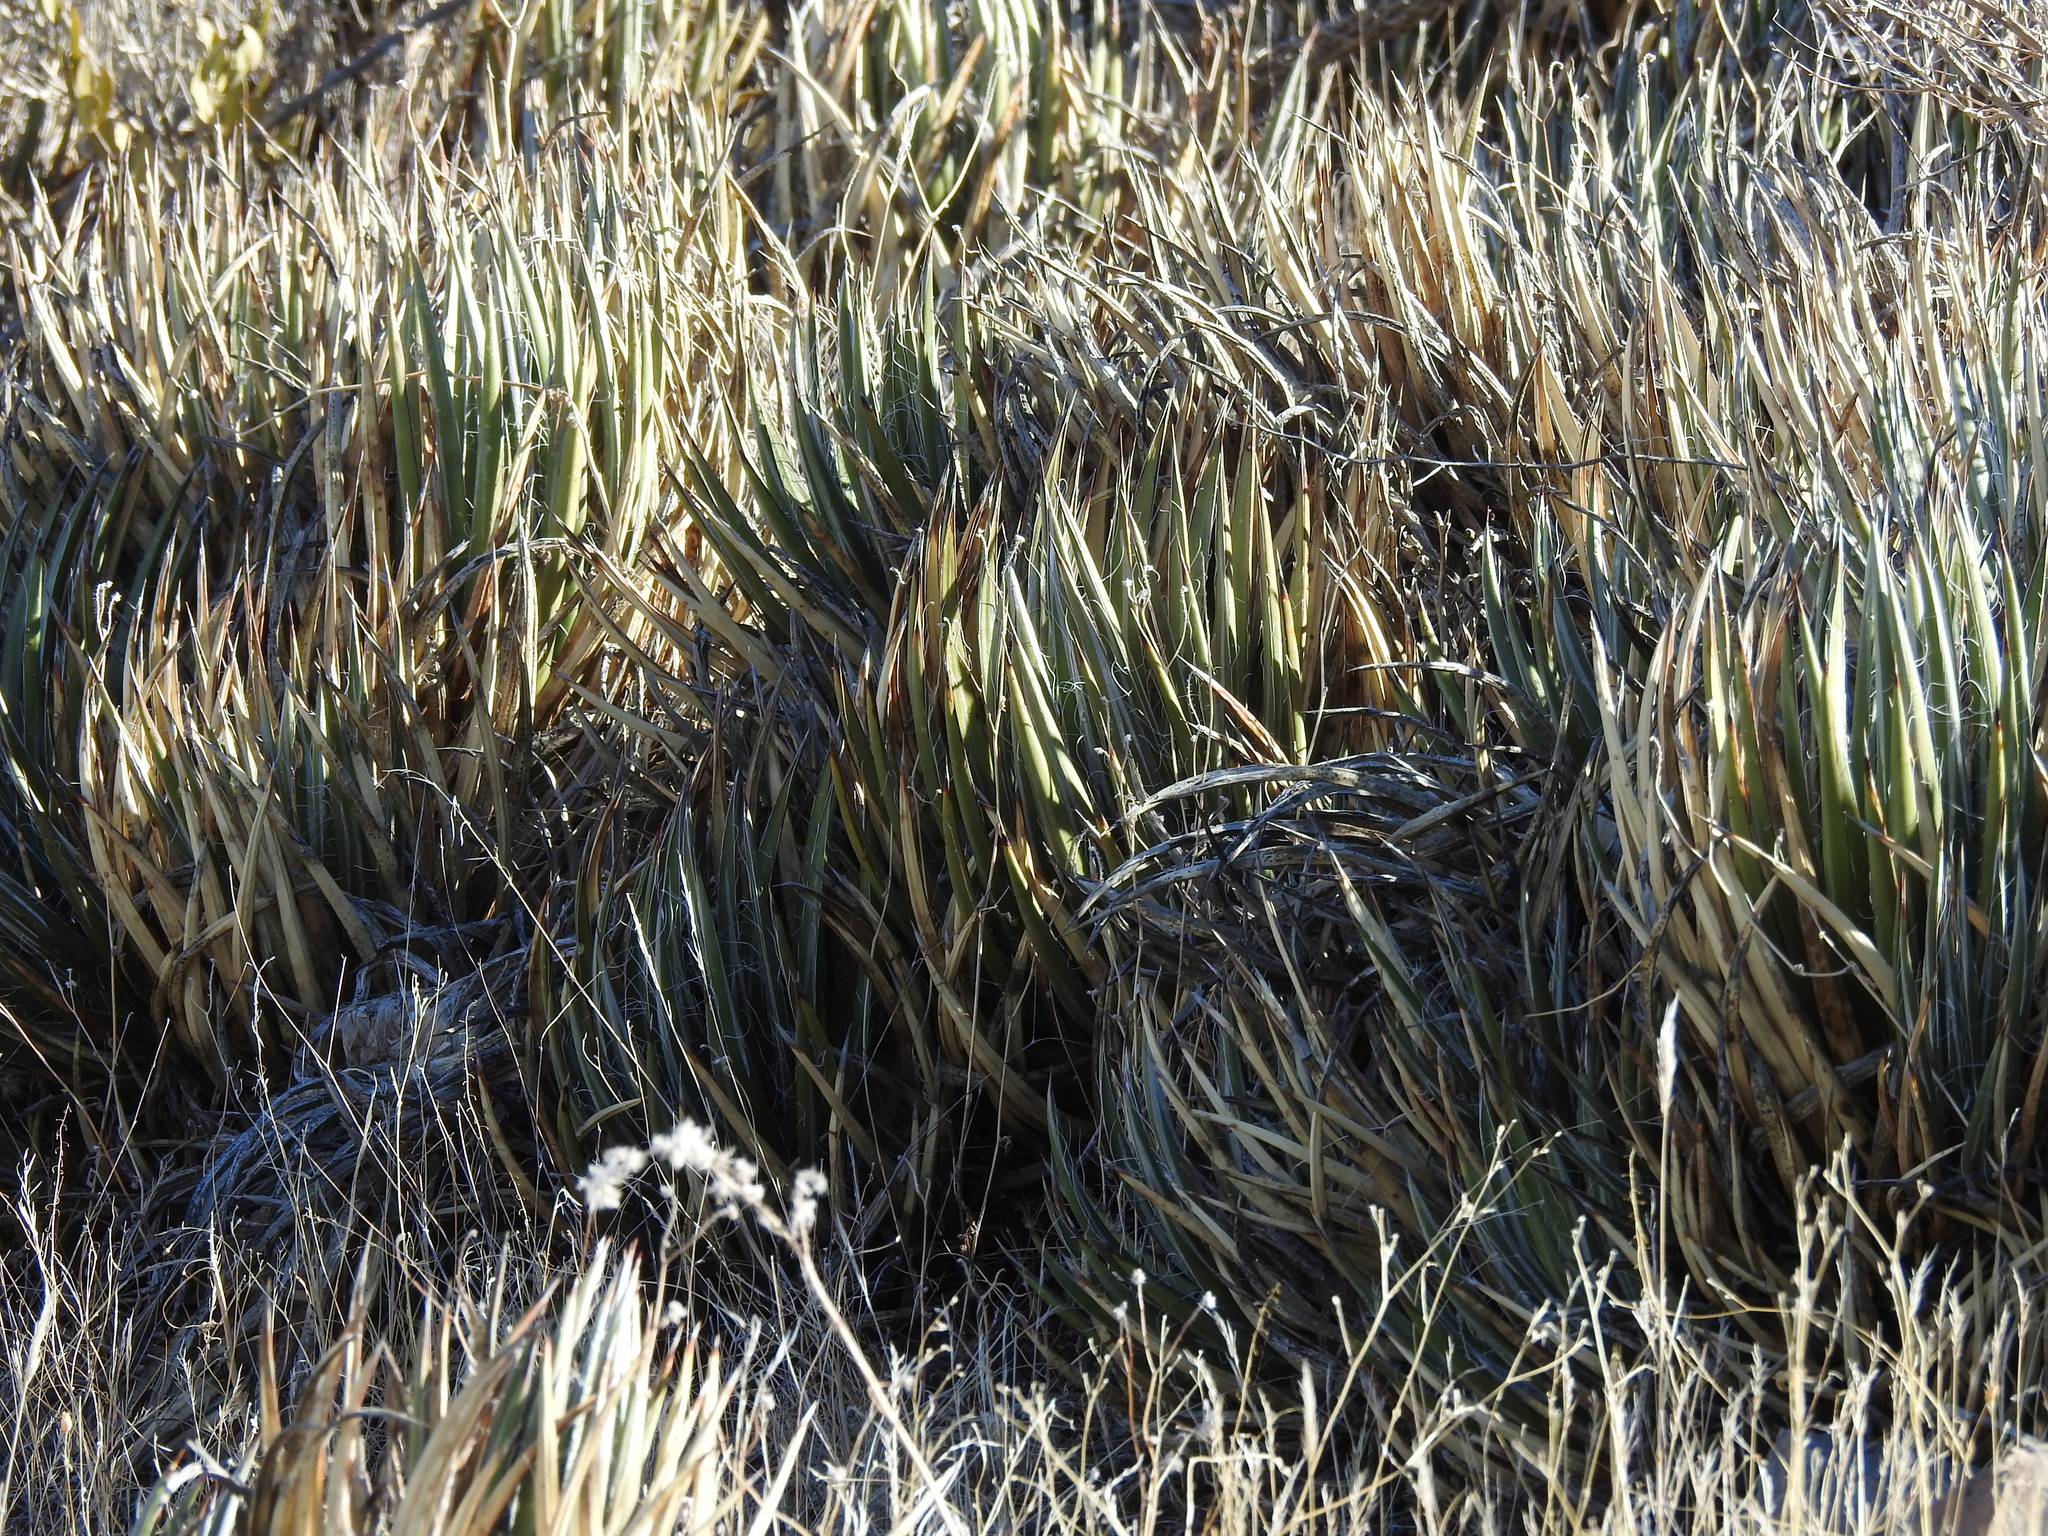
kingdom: Plantae
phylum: Tracheophyta
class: Liliopsida
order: Asparagales
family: Asparagaceae
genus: Agave
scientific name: Agave toumeyana
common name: Toumey's agave
